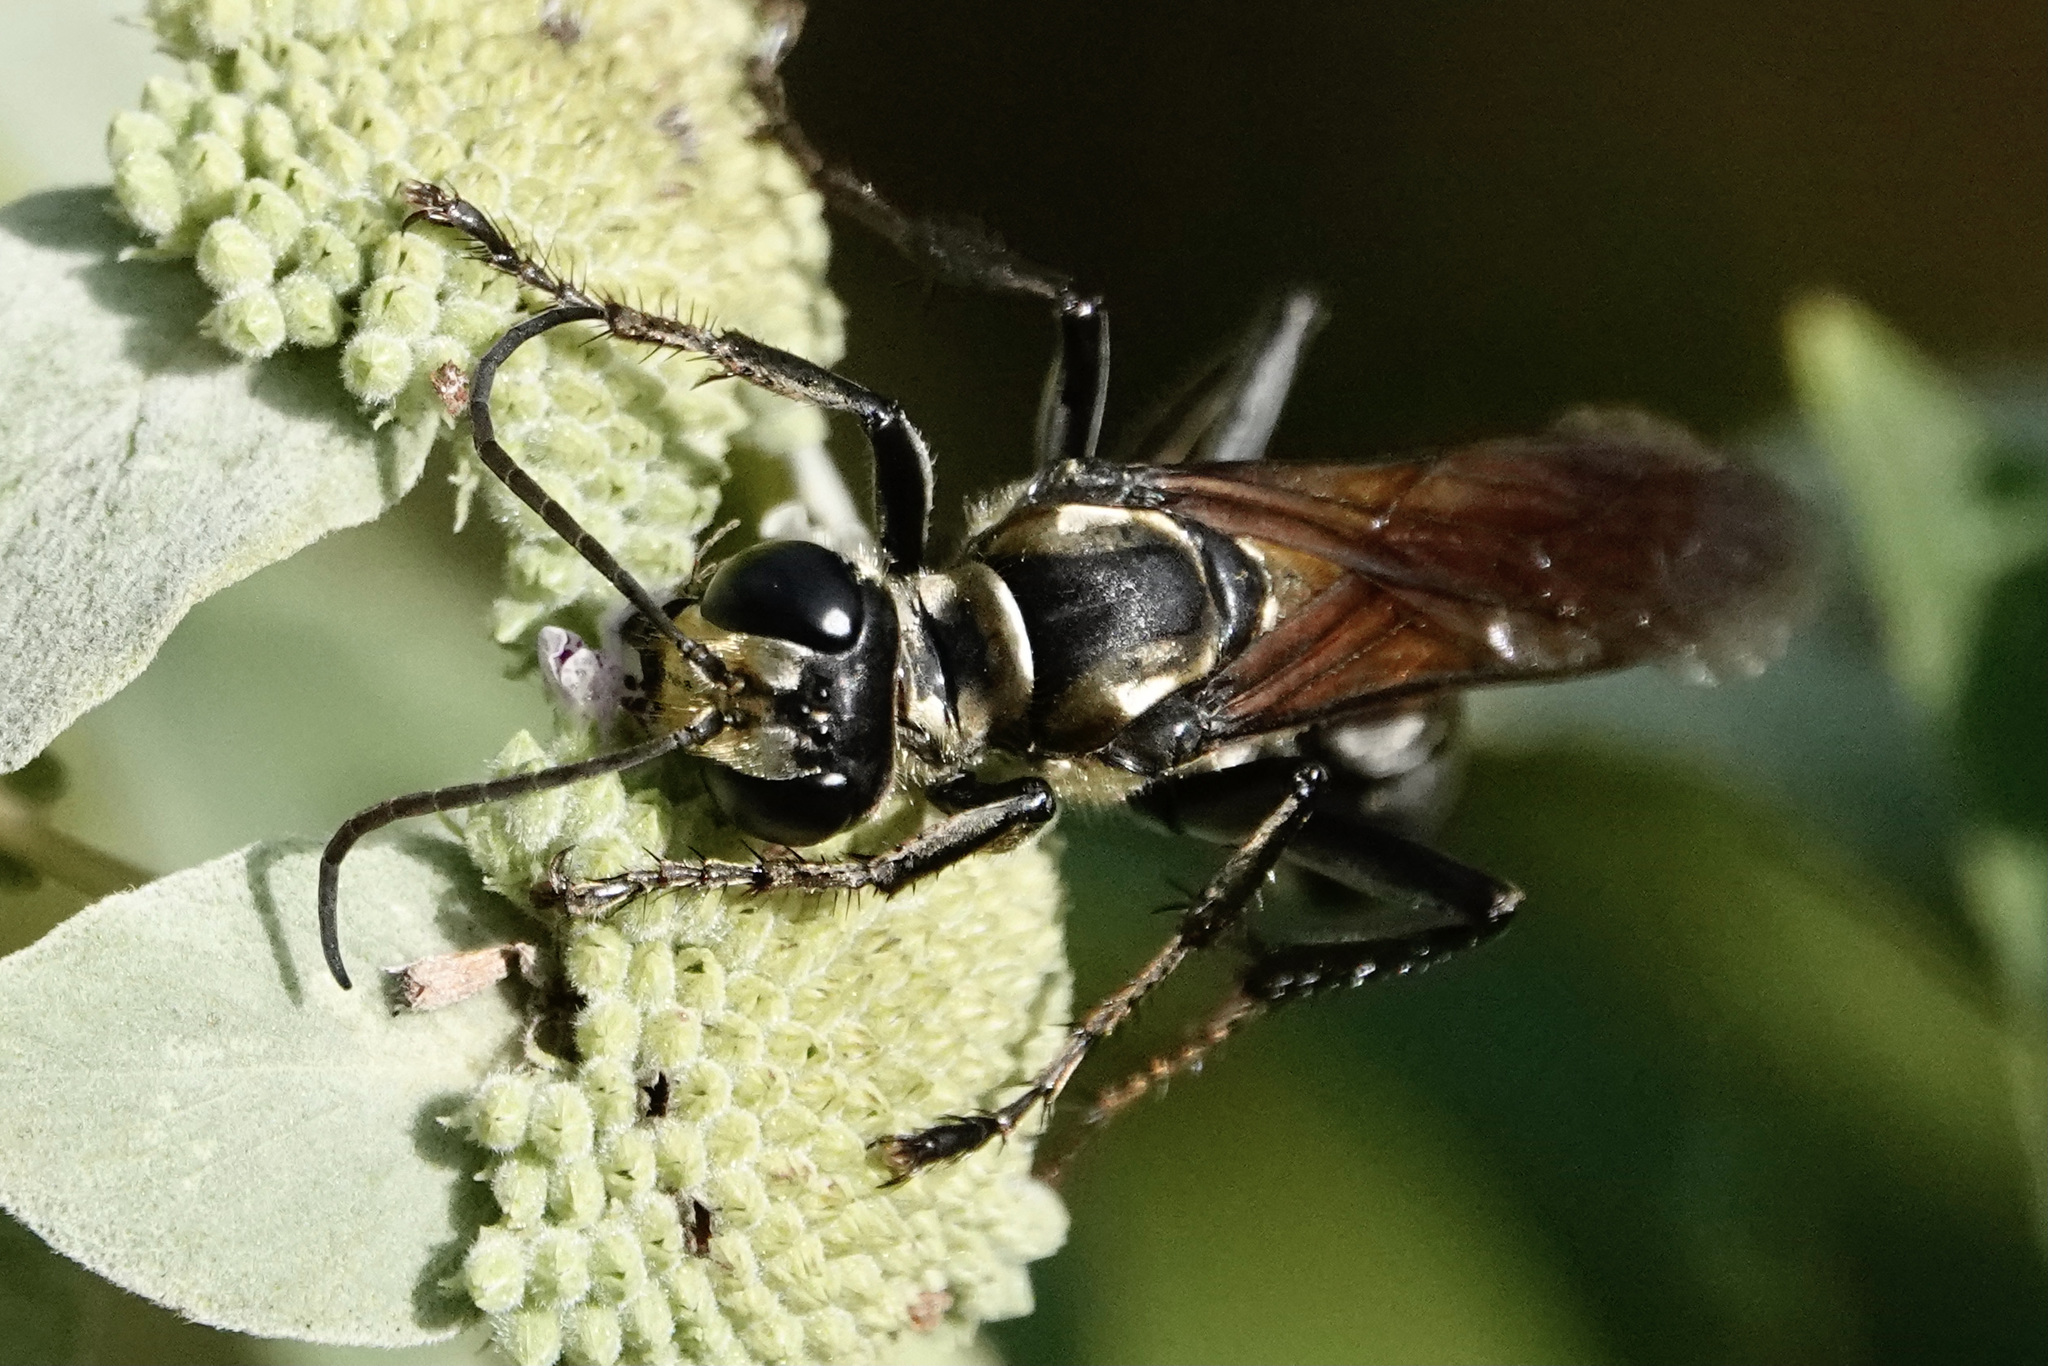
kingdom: Animalia
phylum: Arthropoda
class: Insecta
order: Hymenoptera
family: Sphecidae
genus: Sphex
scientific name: Sphex habenus
